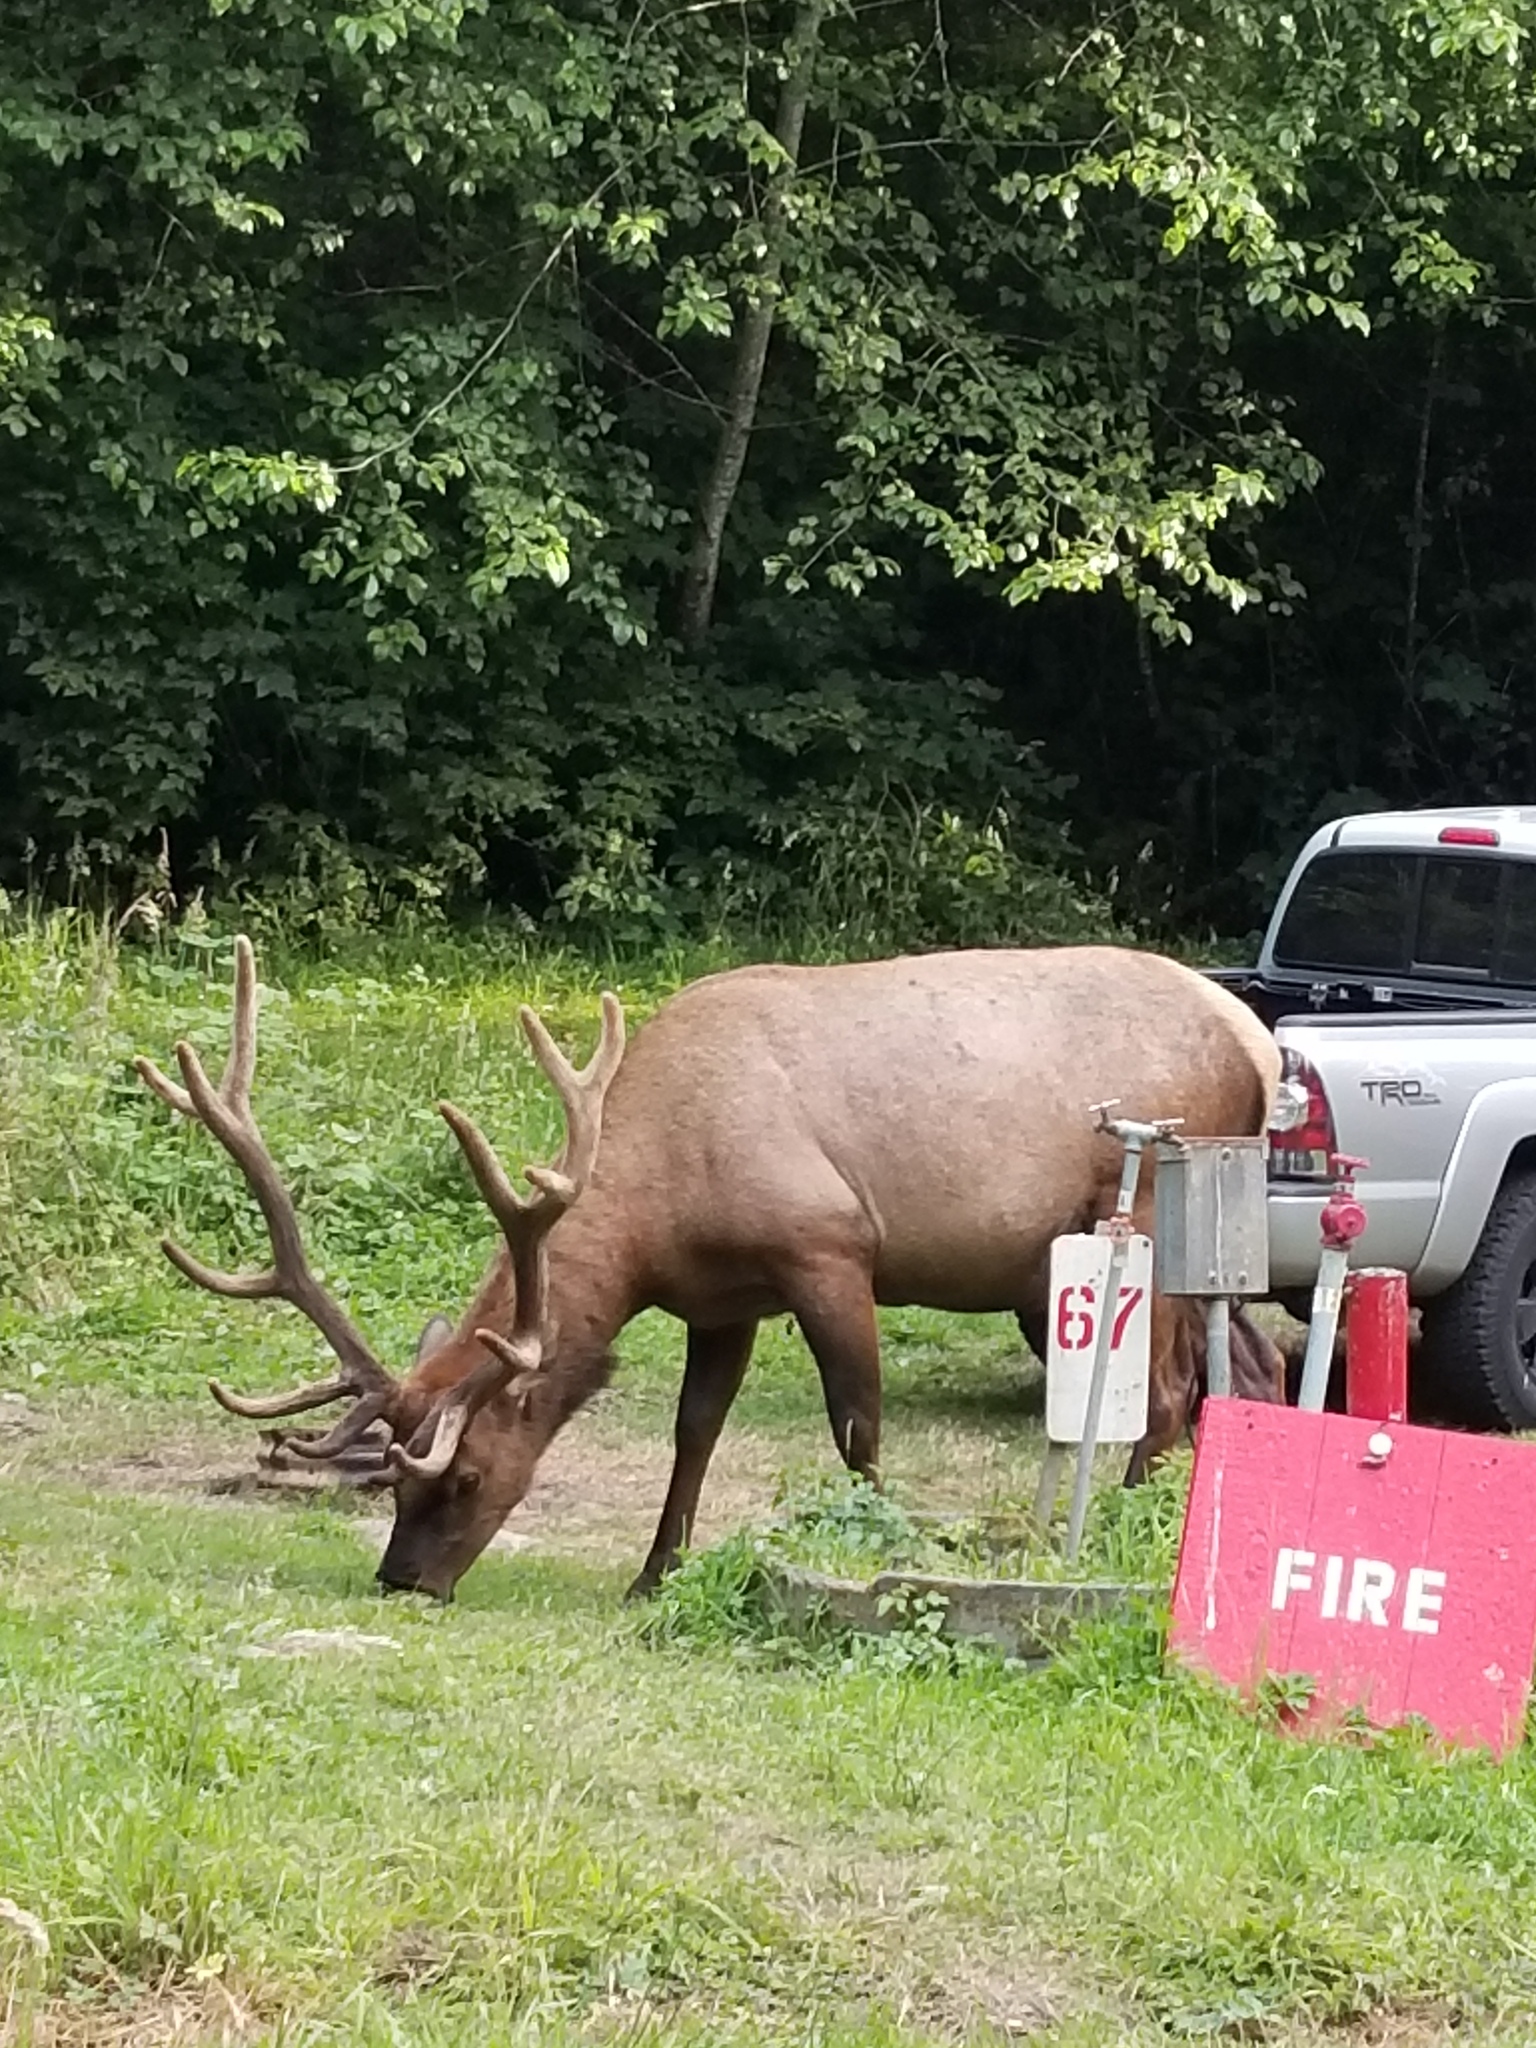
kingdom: Animalia
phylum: Chordata
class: Mammalia
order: Artiodactyla
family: Cervidae
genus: Cervus
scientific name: Cervus elaphus
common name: Red deer
